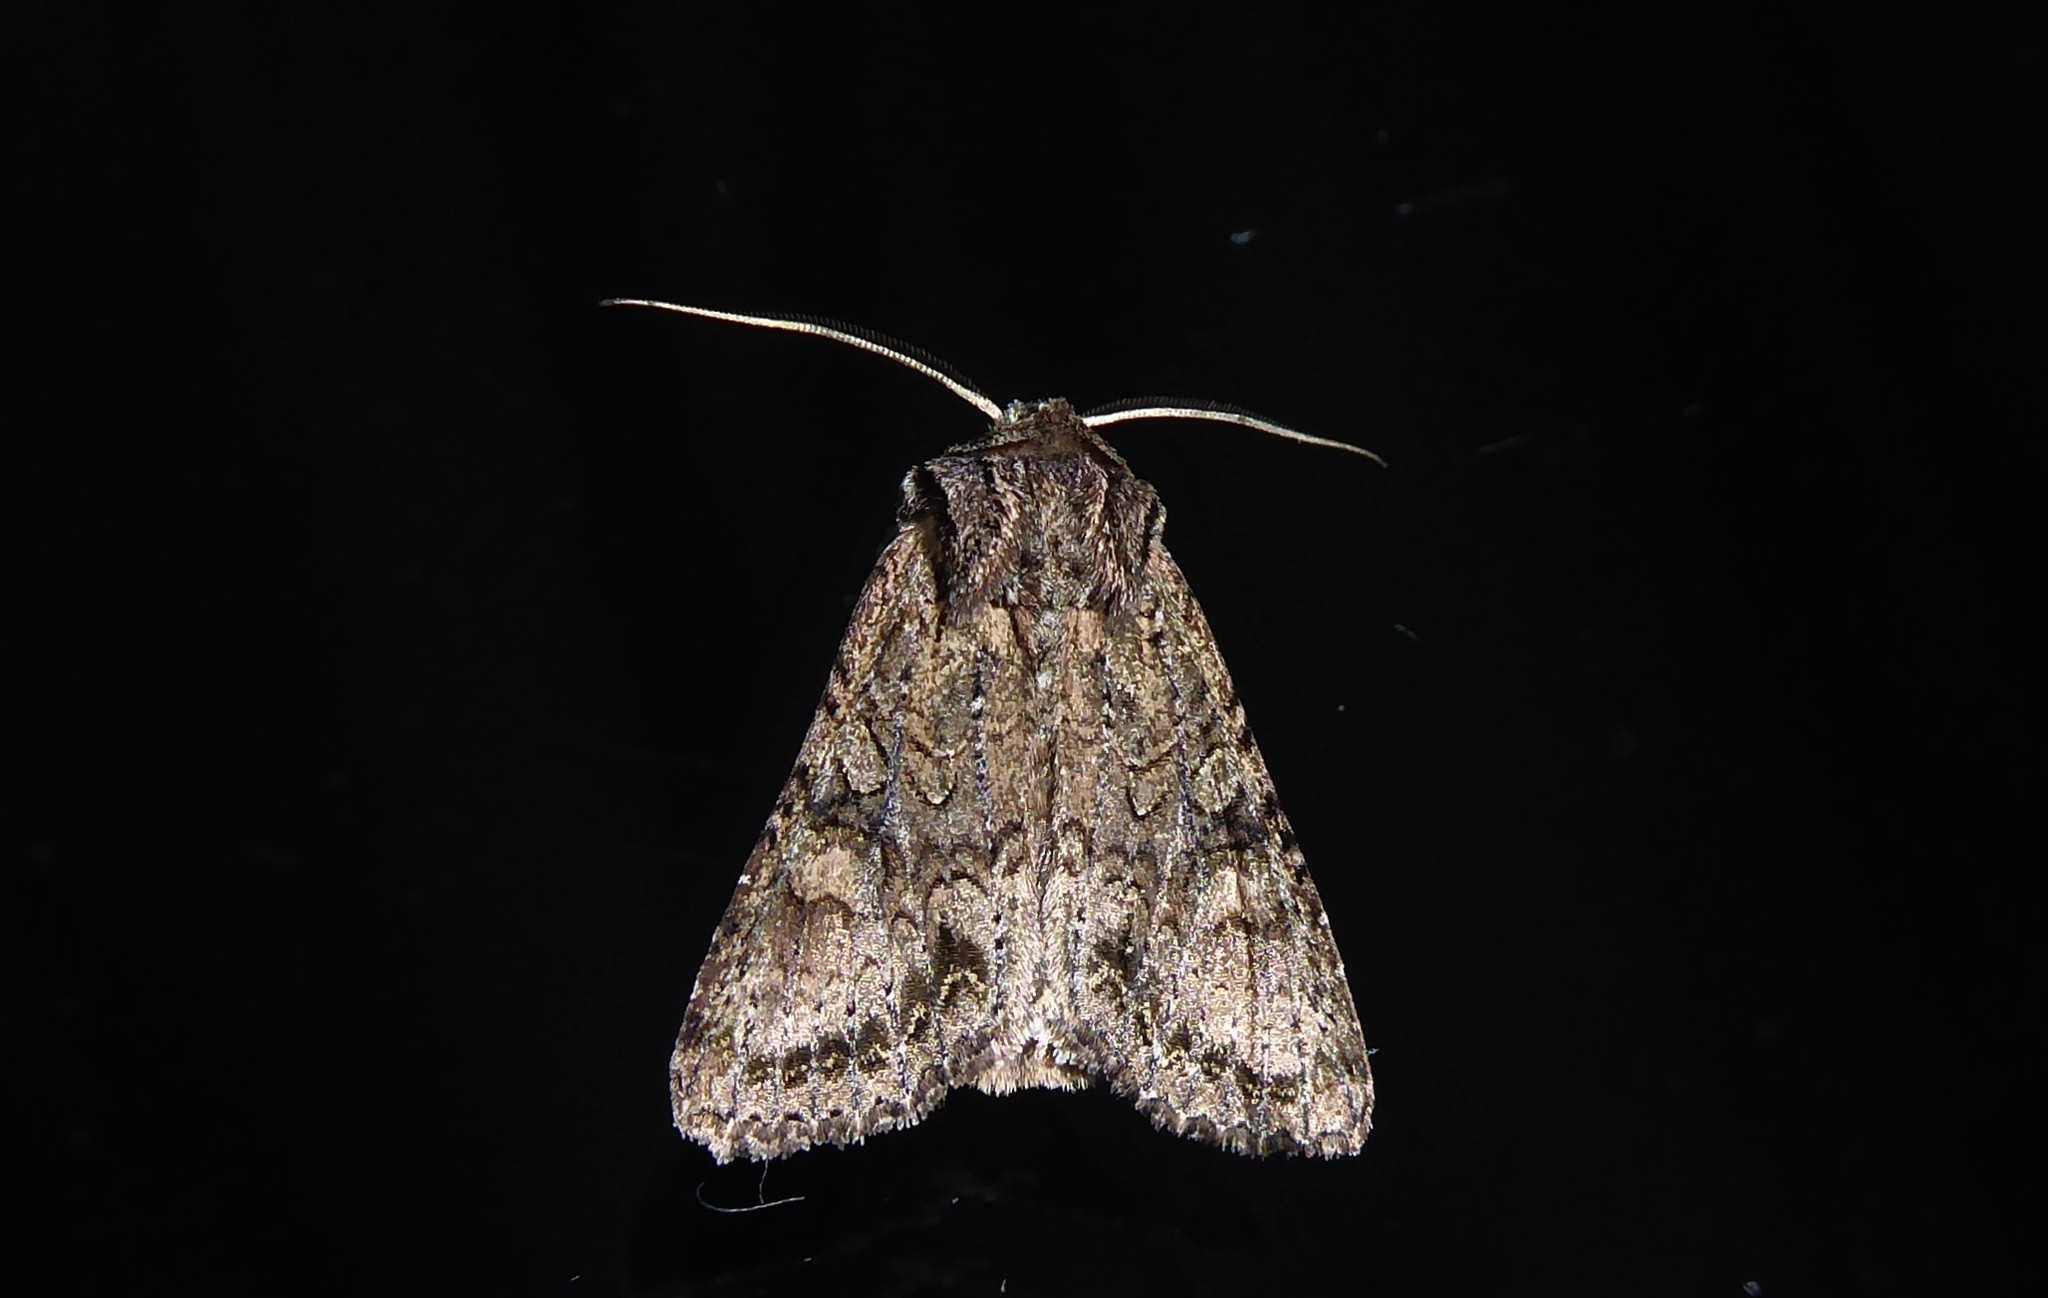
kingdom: Animalia
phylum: Arthropoda
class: Insecta
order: Lepidoptera
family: Noctuidae
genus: Ichneutica
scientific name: Ichneutica mutans
